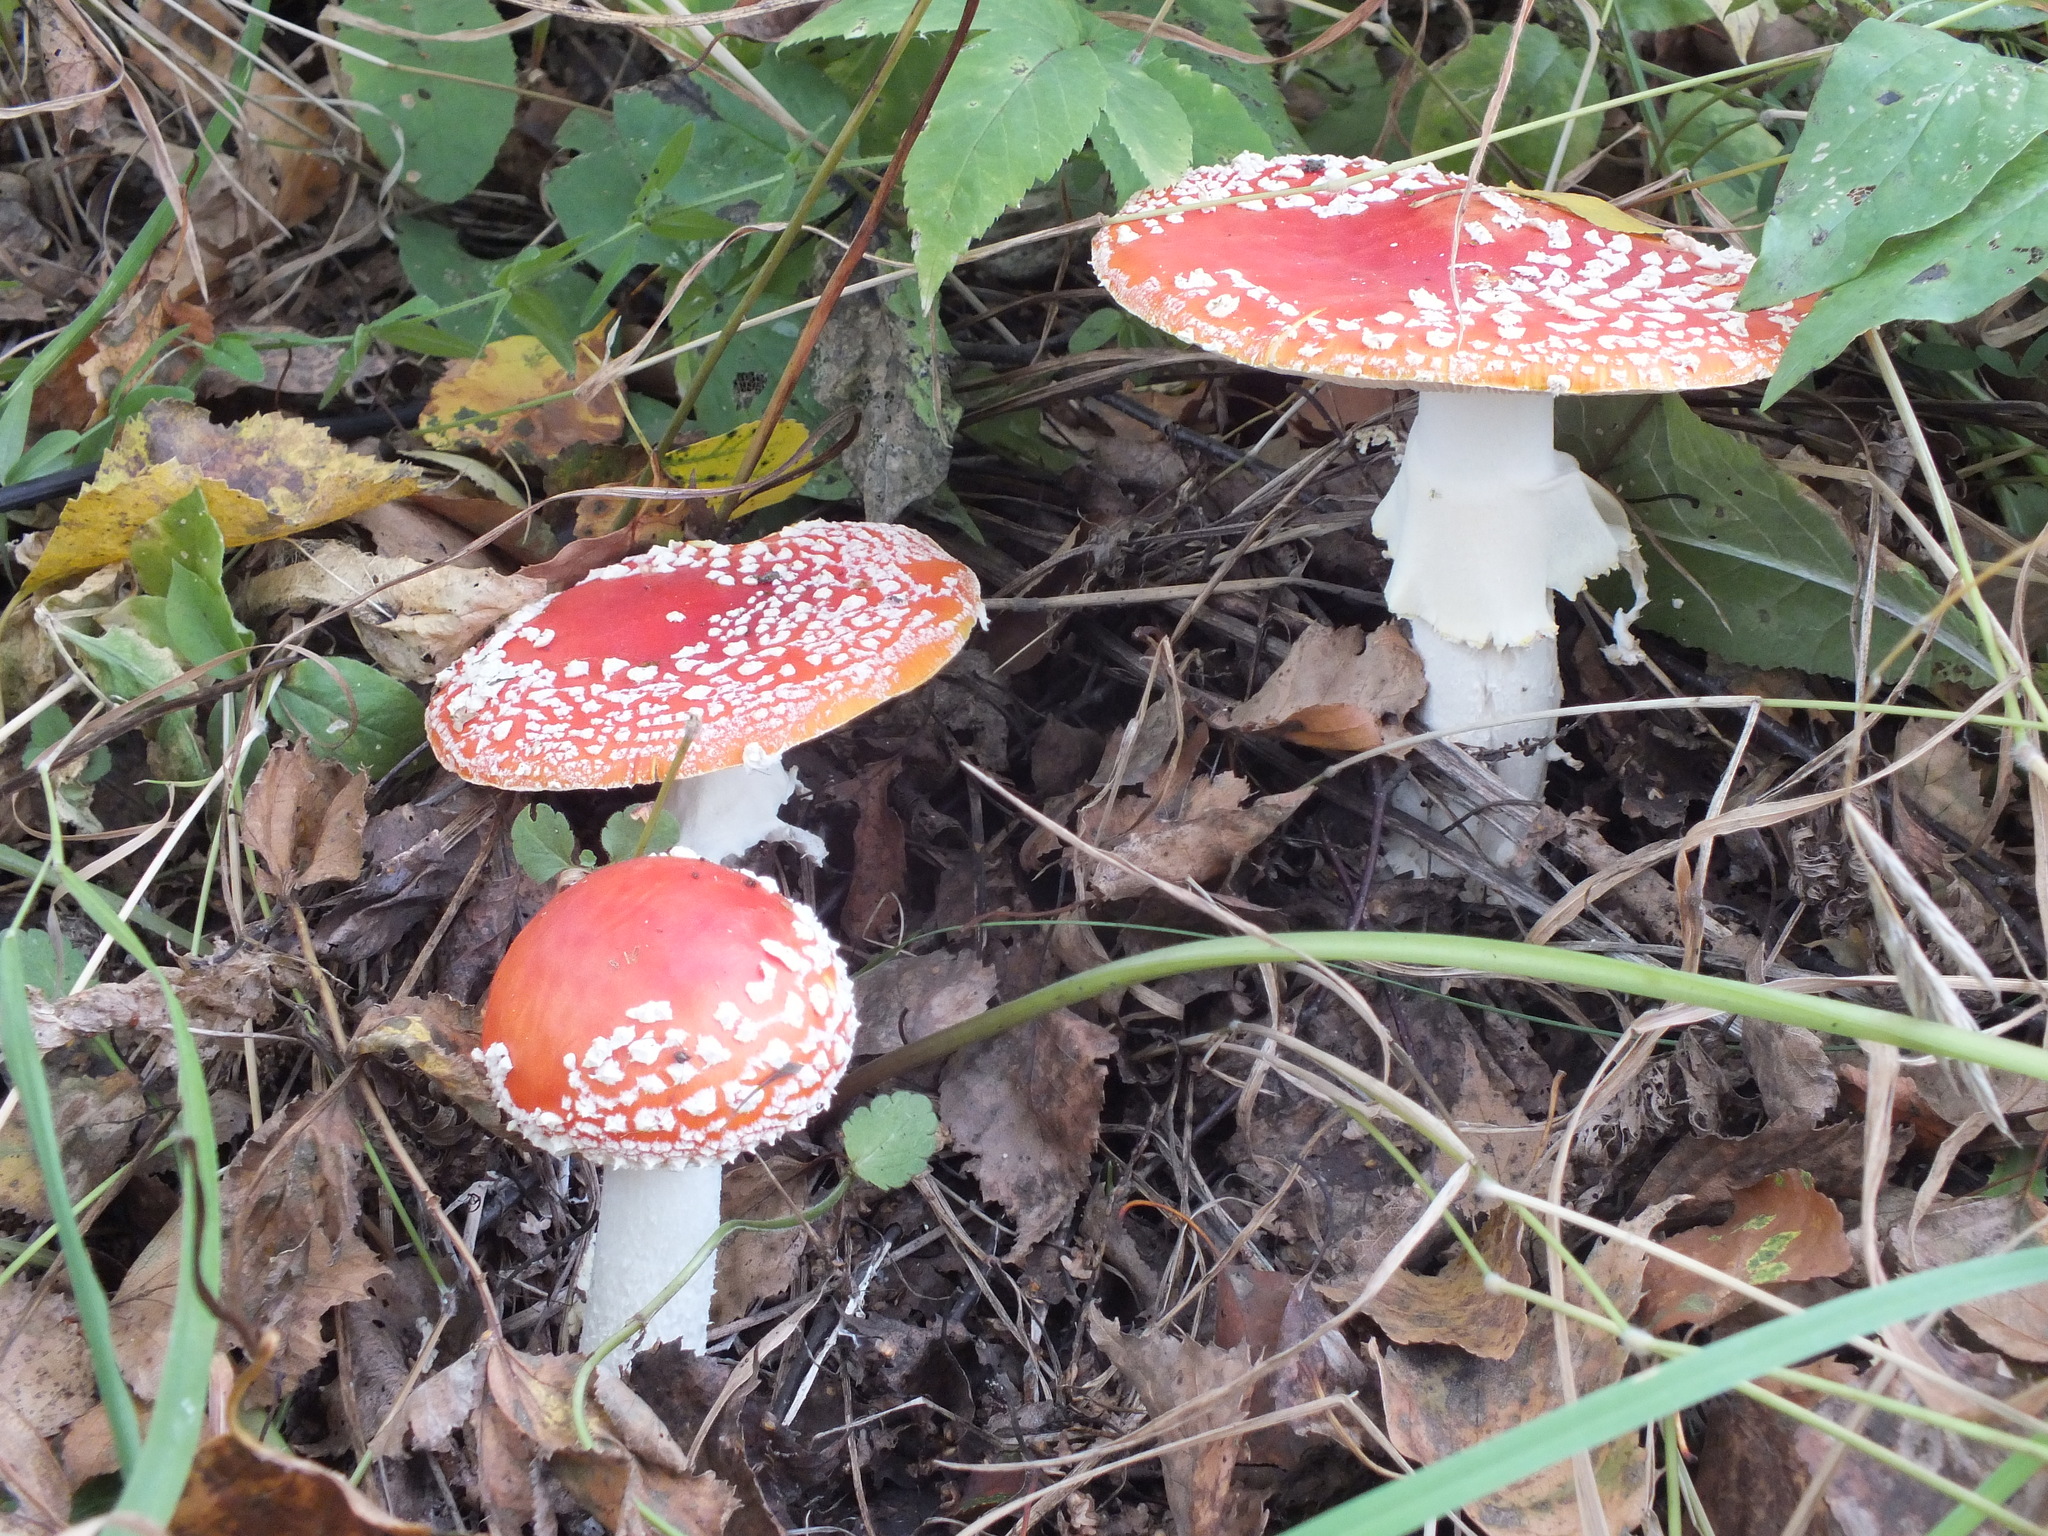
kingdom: Fungi
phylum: Basidiomycota
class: Agaricomycetes
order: Agaricales
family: Amanitaceae
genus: Amanita
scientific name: Amanita muscaria
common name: Fly agaric
